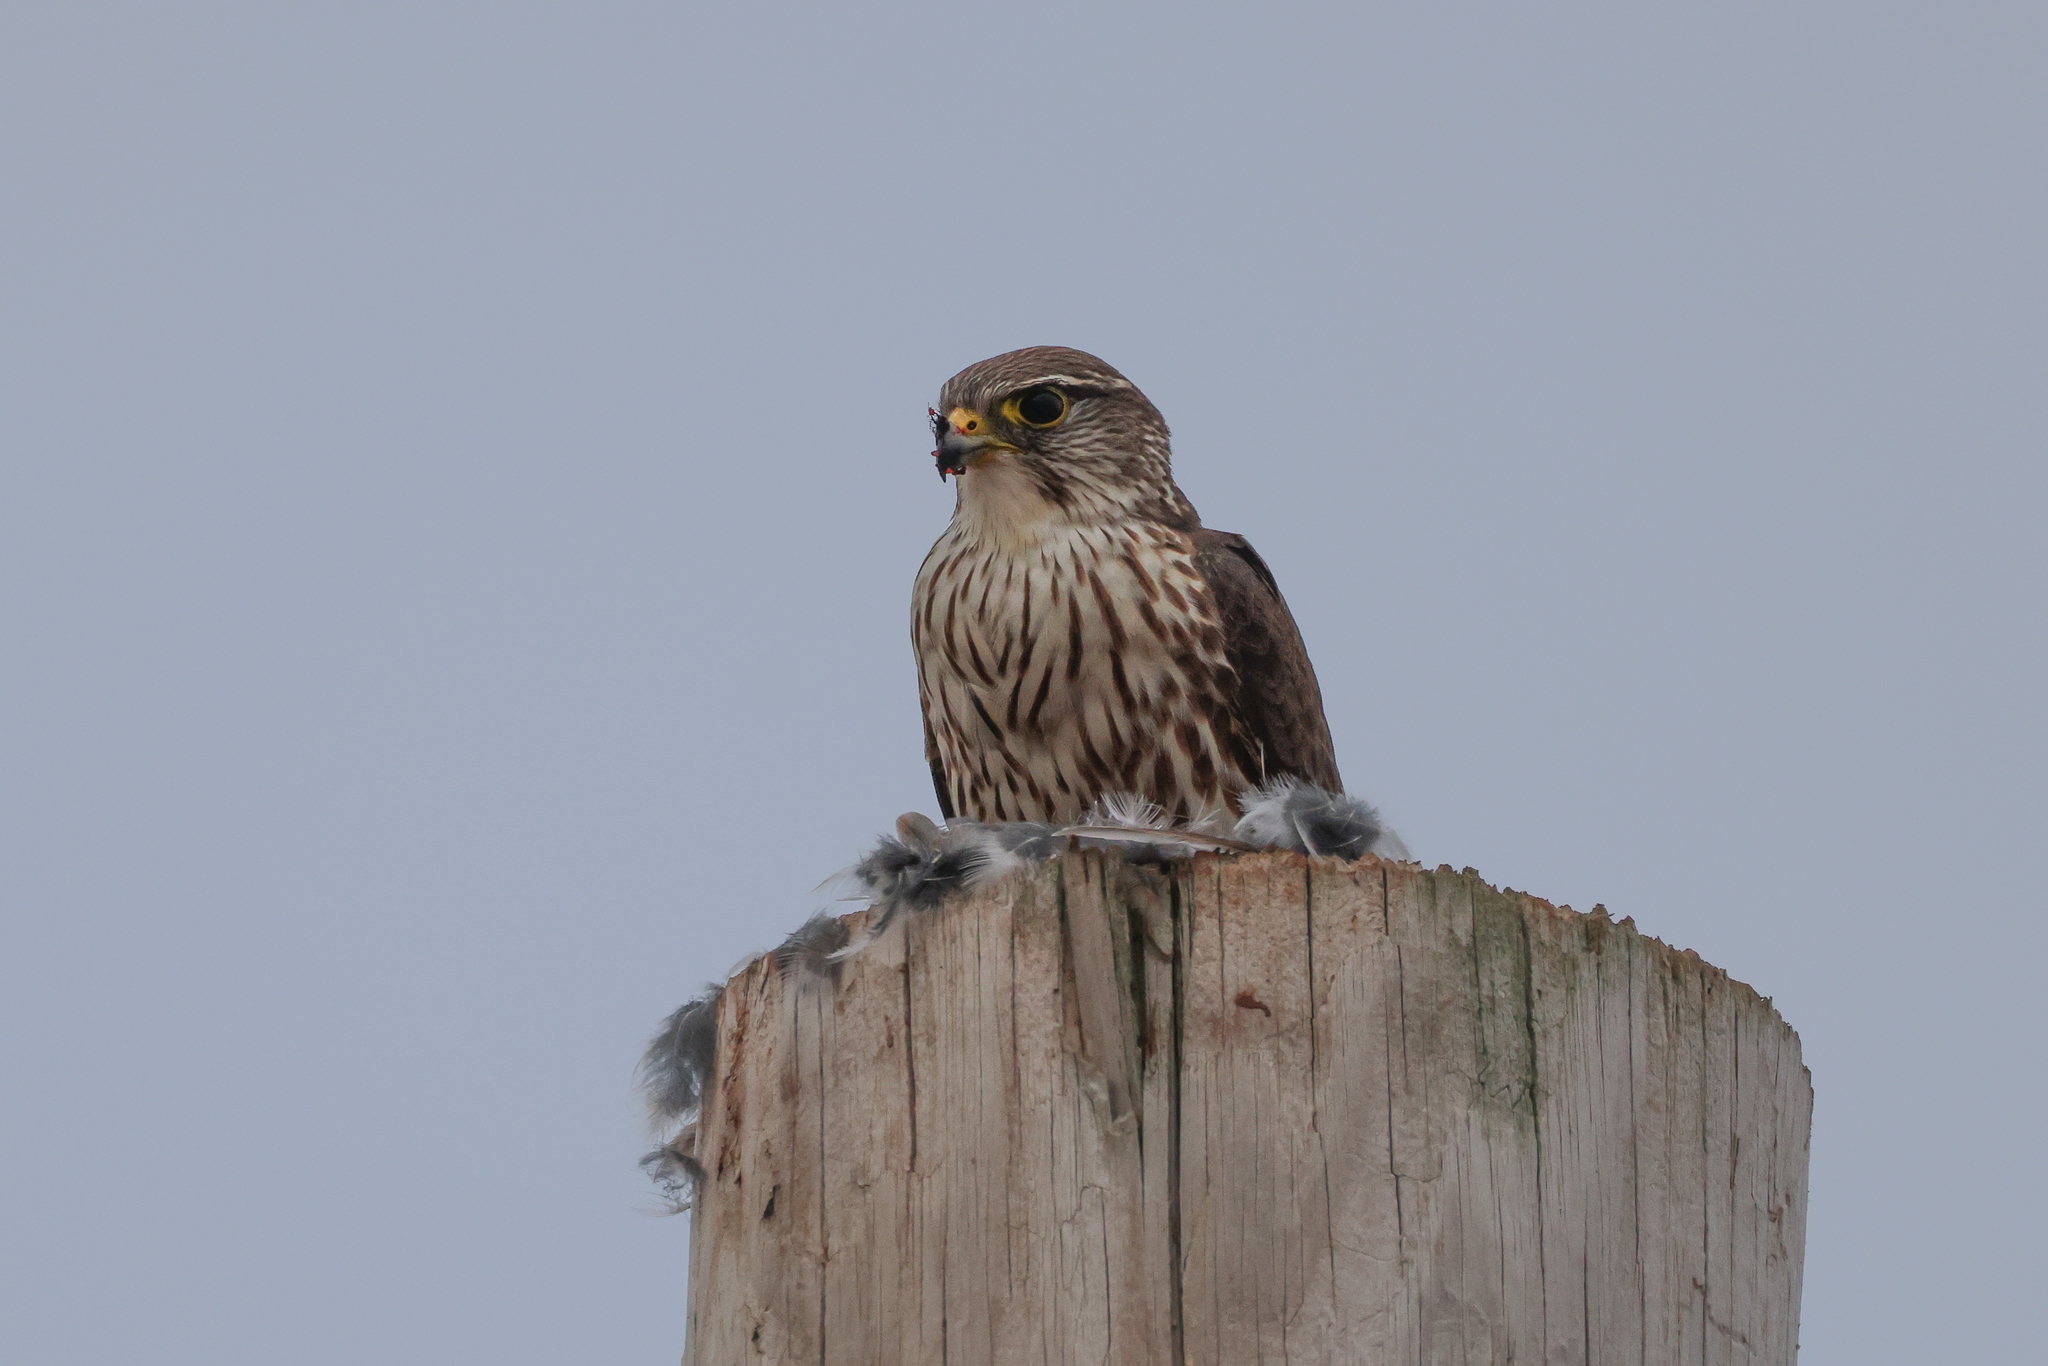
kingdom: Animalia
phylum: Chordata
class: Aves
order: Falconiformes
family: Falconidae
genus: Falco
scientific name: Falco columbarius
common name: Merlin
